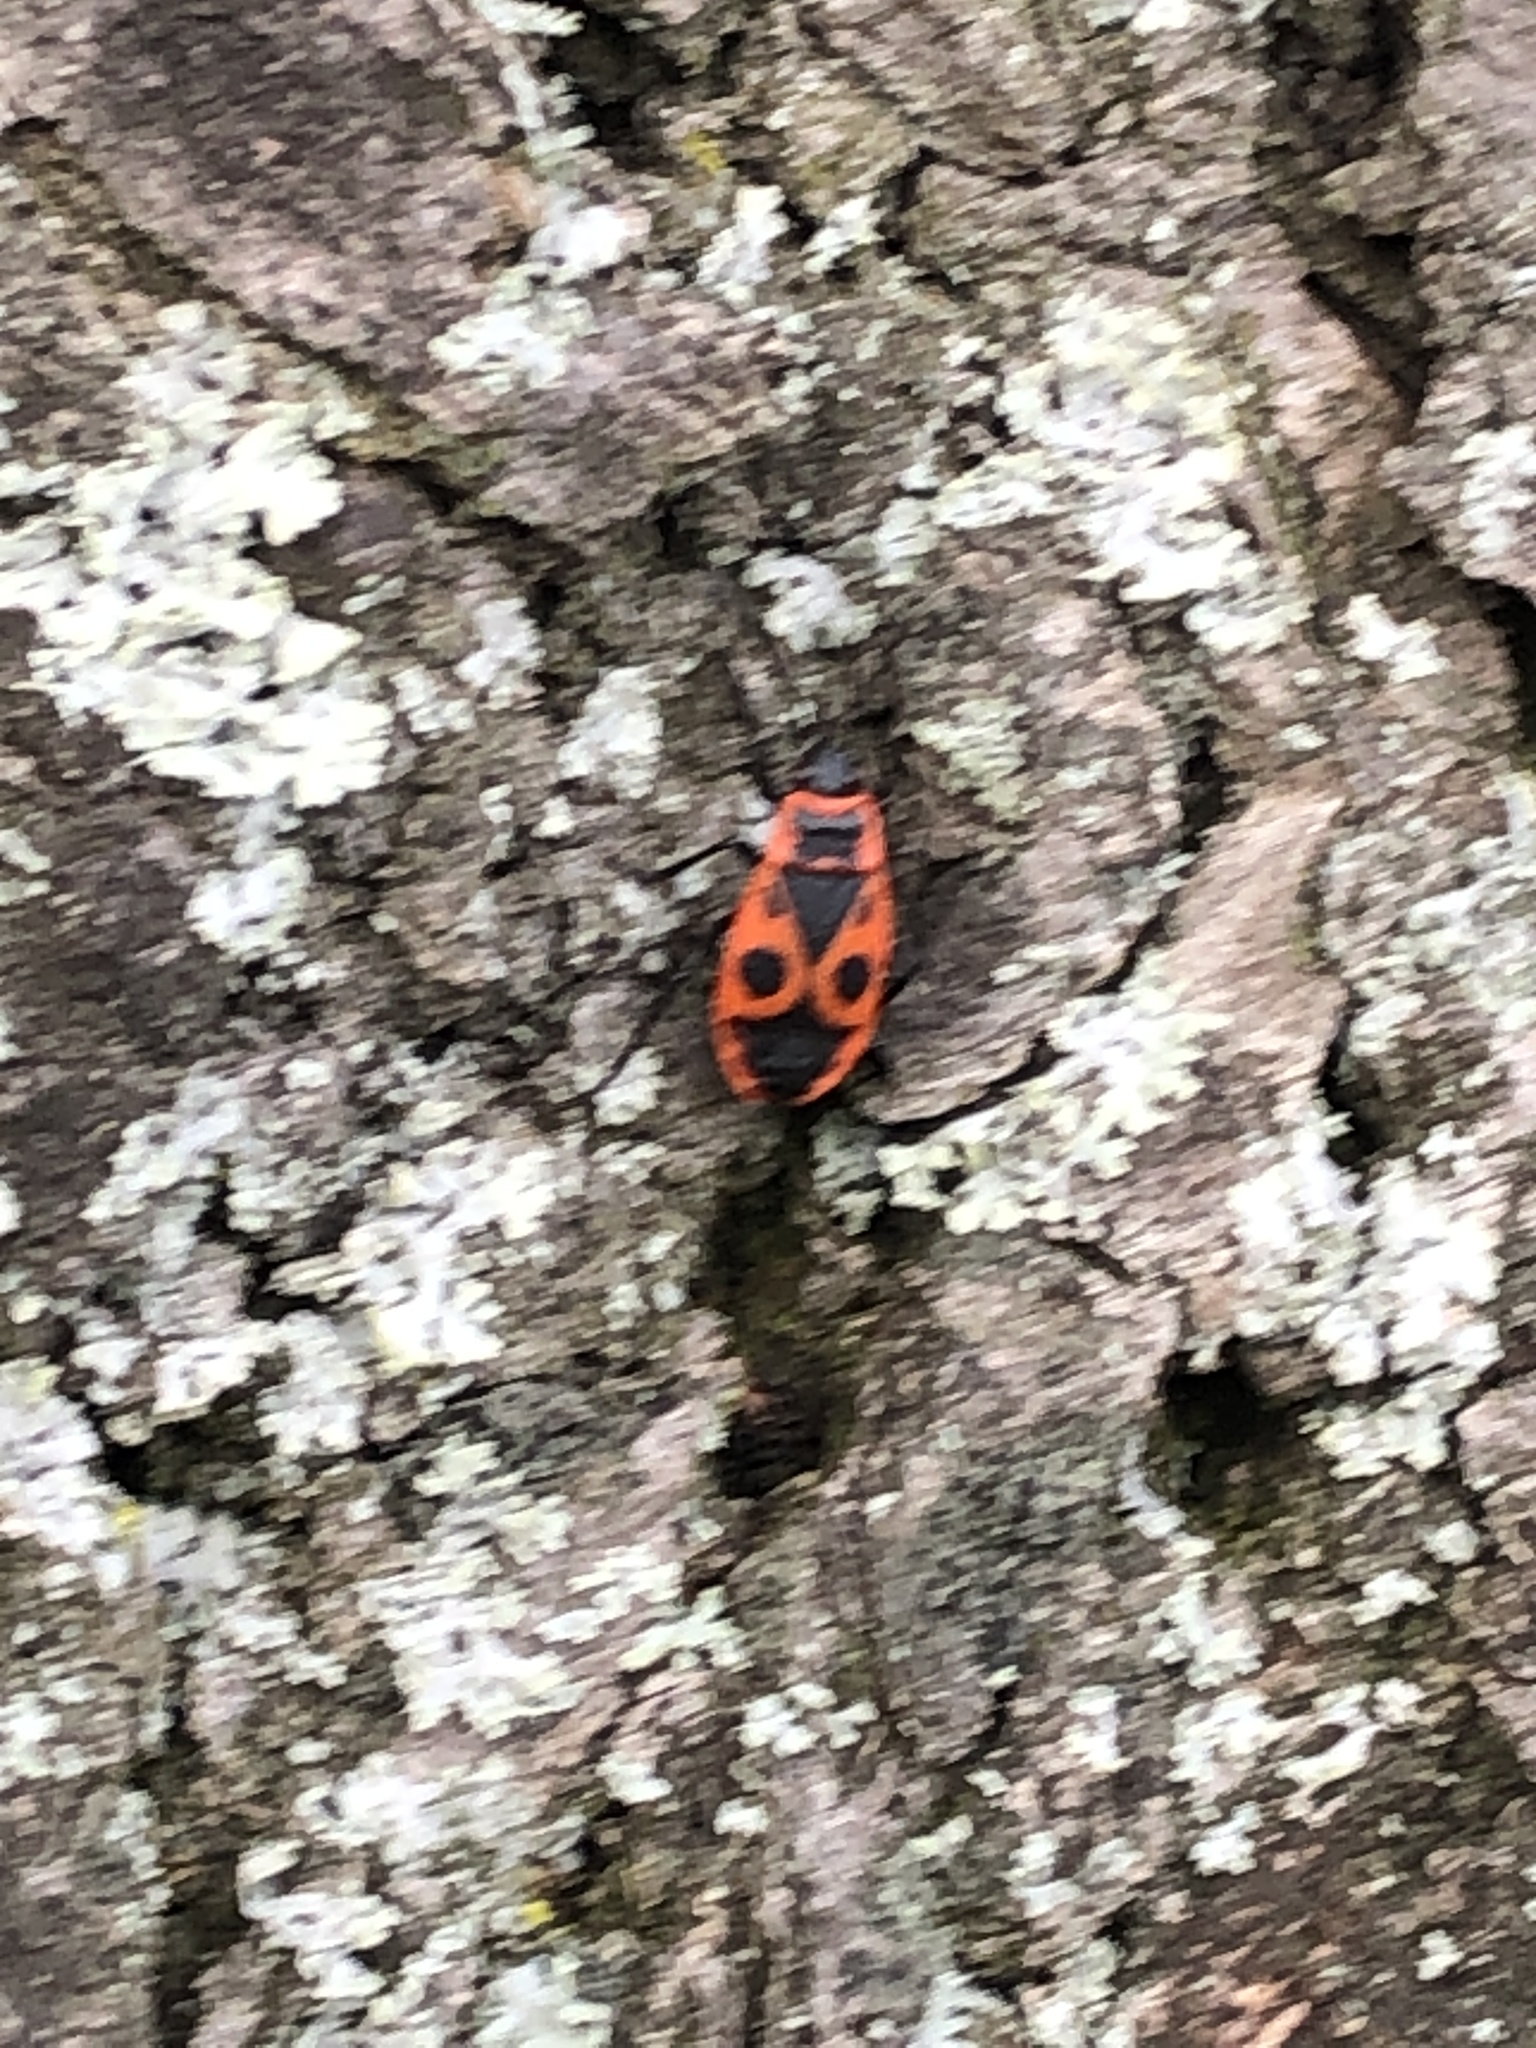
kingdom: Animalia
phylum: Arthropoda
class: Insecta
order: Hemiptera
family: Pyrrhocoridae
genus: Pyrrhocoris
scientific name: Pyrrhocoris apterus
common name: Firebug
